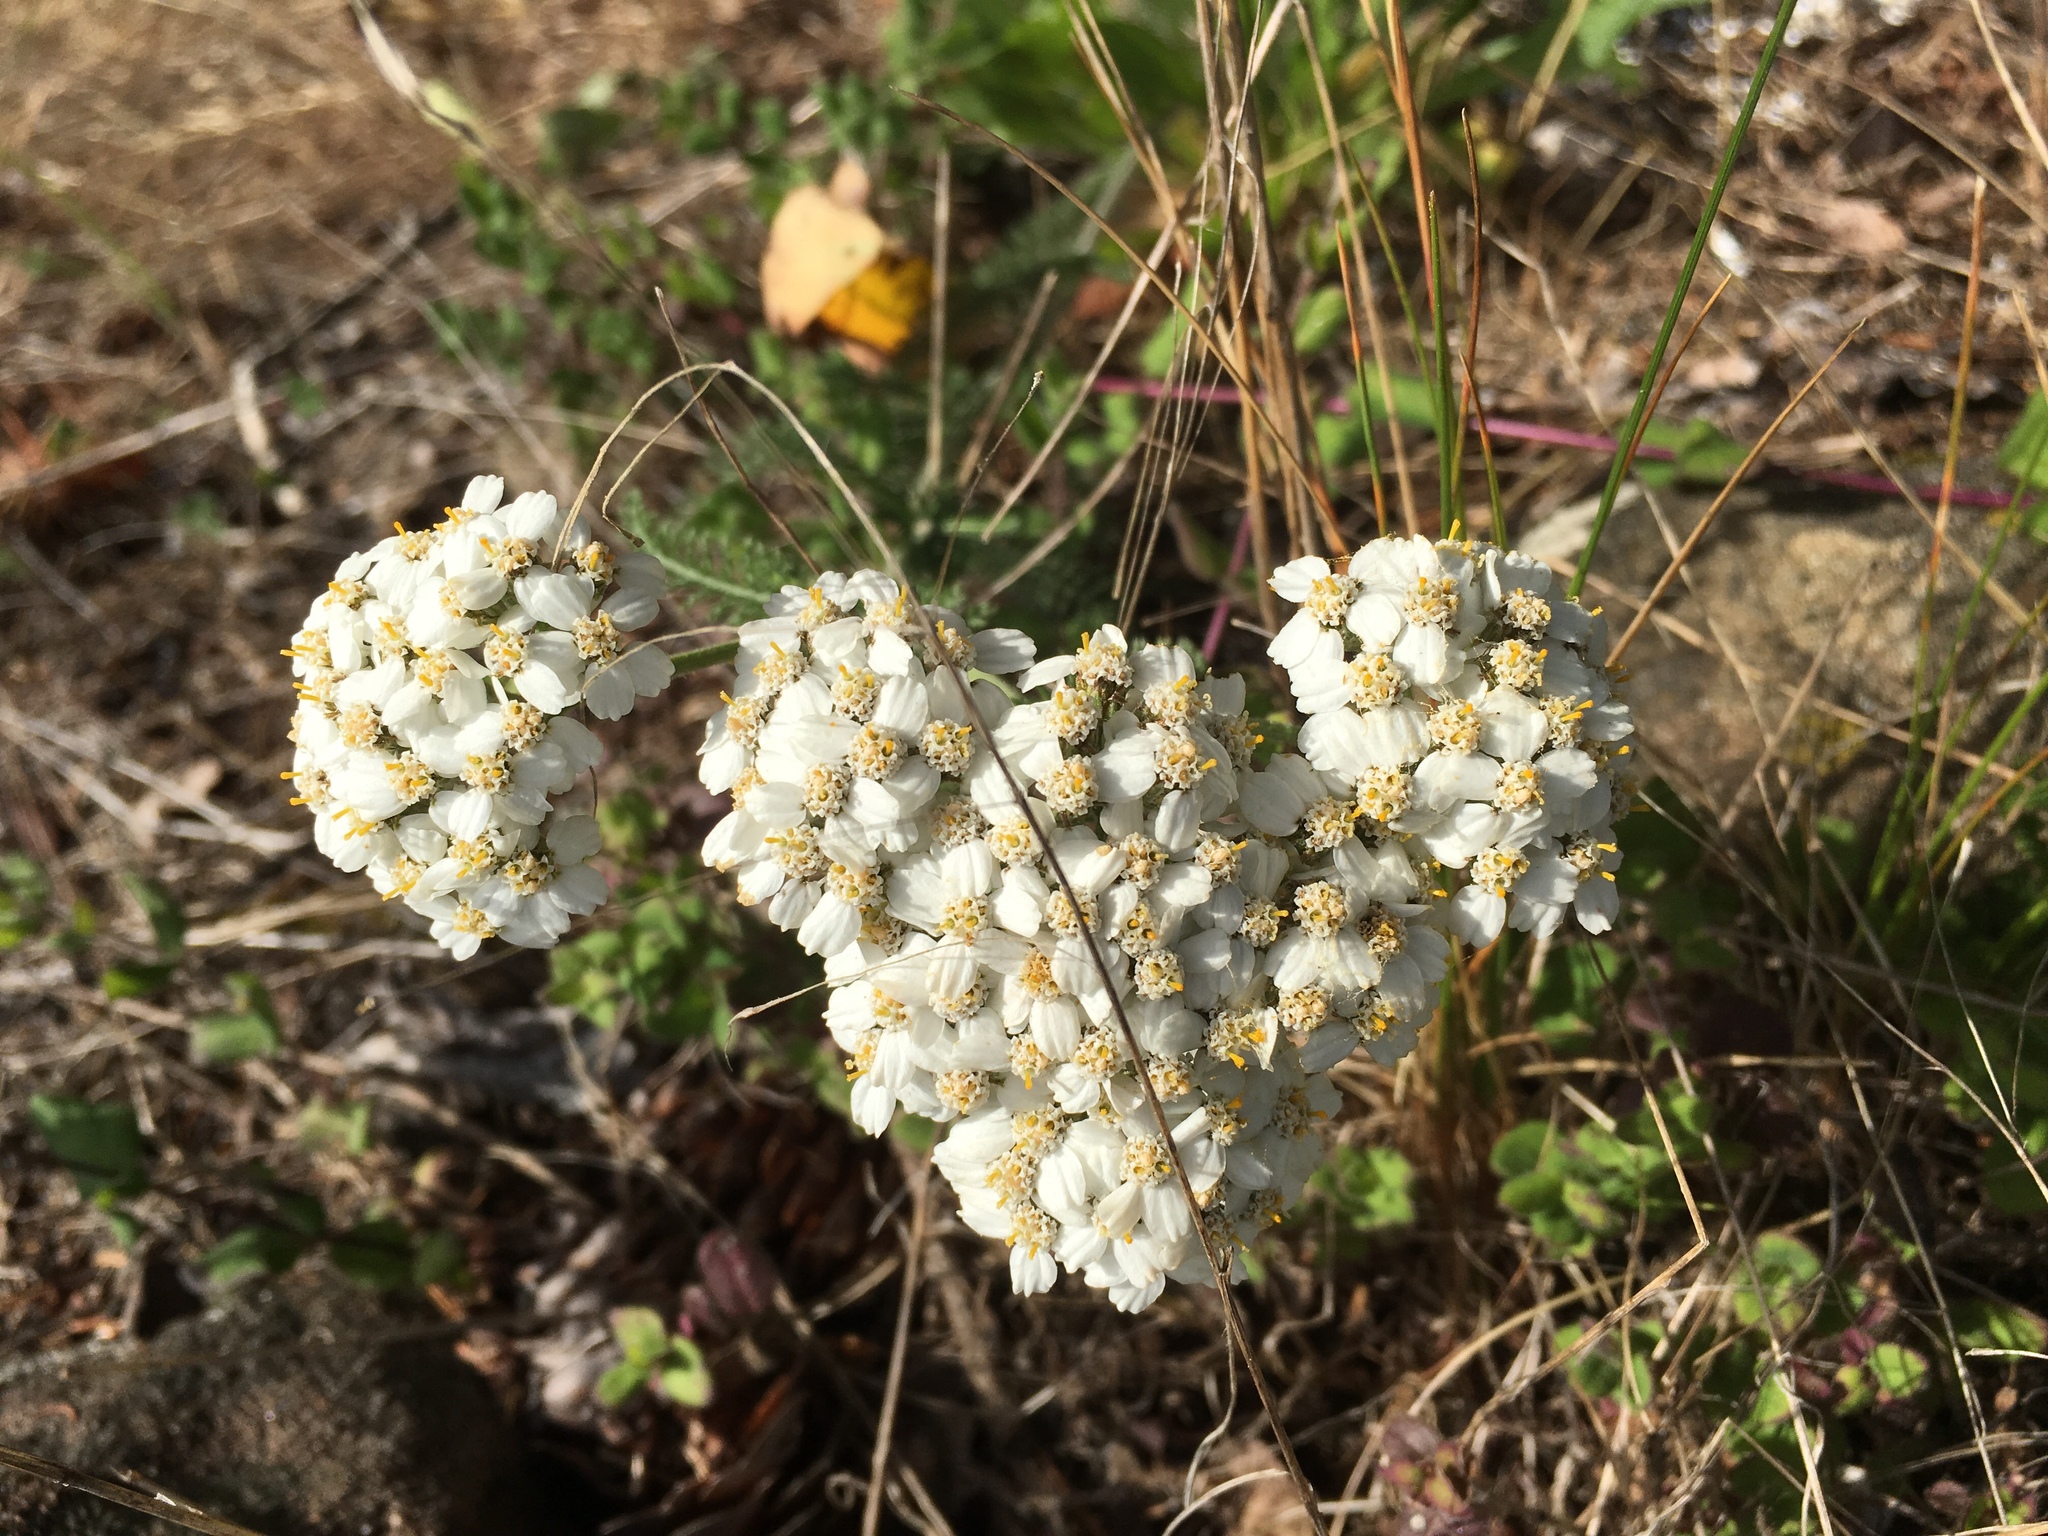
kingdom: Plantae
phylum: Tracheophyta
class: Magnoliopsida
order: Asterales
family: Asteraceae
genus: Achillea
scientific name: Achillea millefolium
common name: Yarrow
